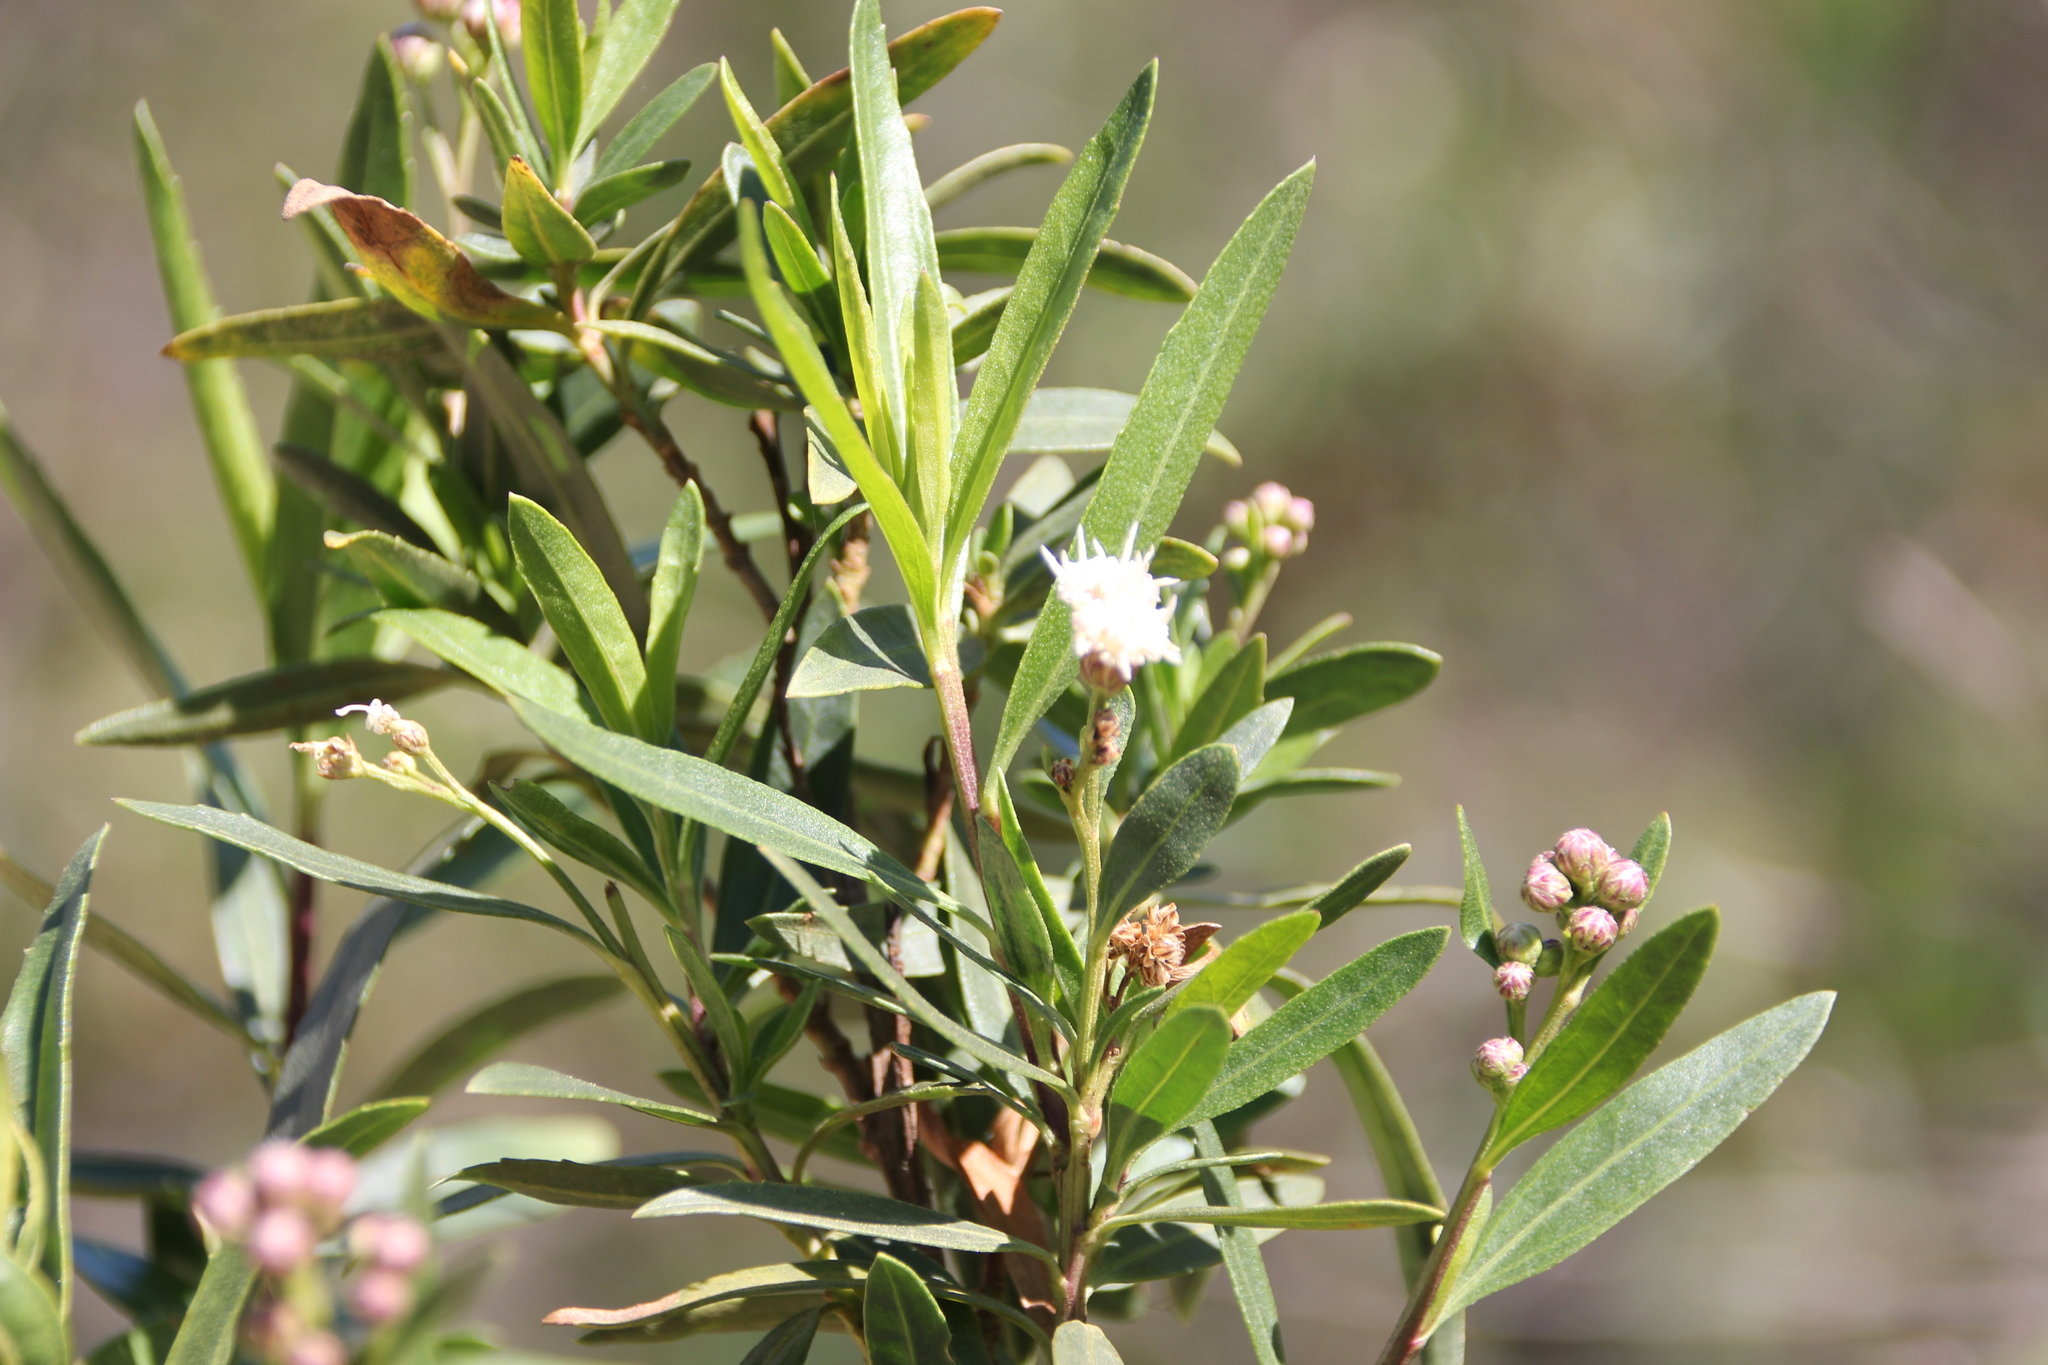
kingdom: Plantae
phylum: Tracheophyta
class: Magnoliopsida
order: Asterales
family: Asteraceae
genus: Baccharis
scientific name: Baccharis salicifolia
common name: Sticky baccharis
